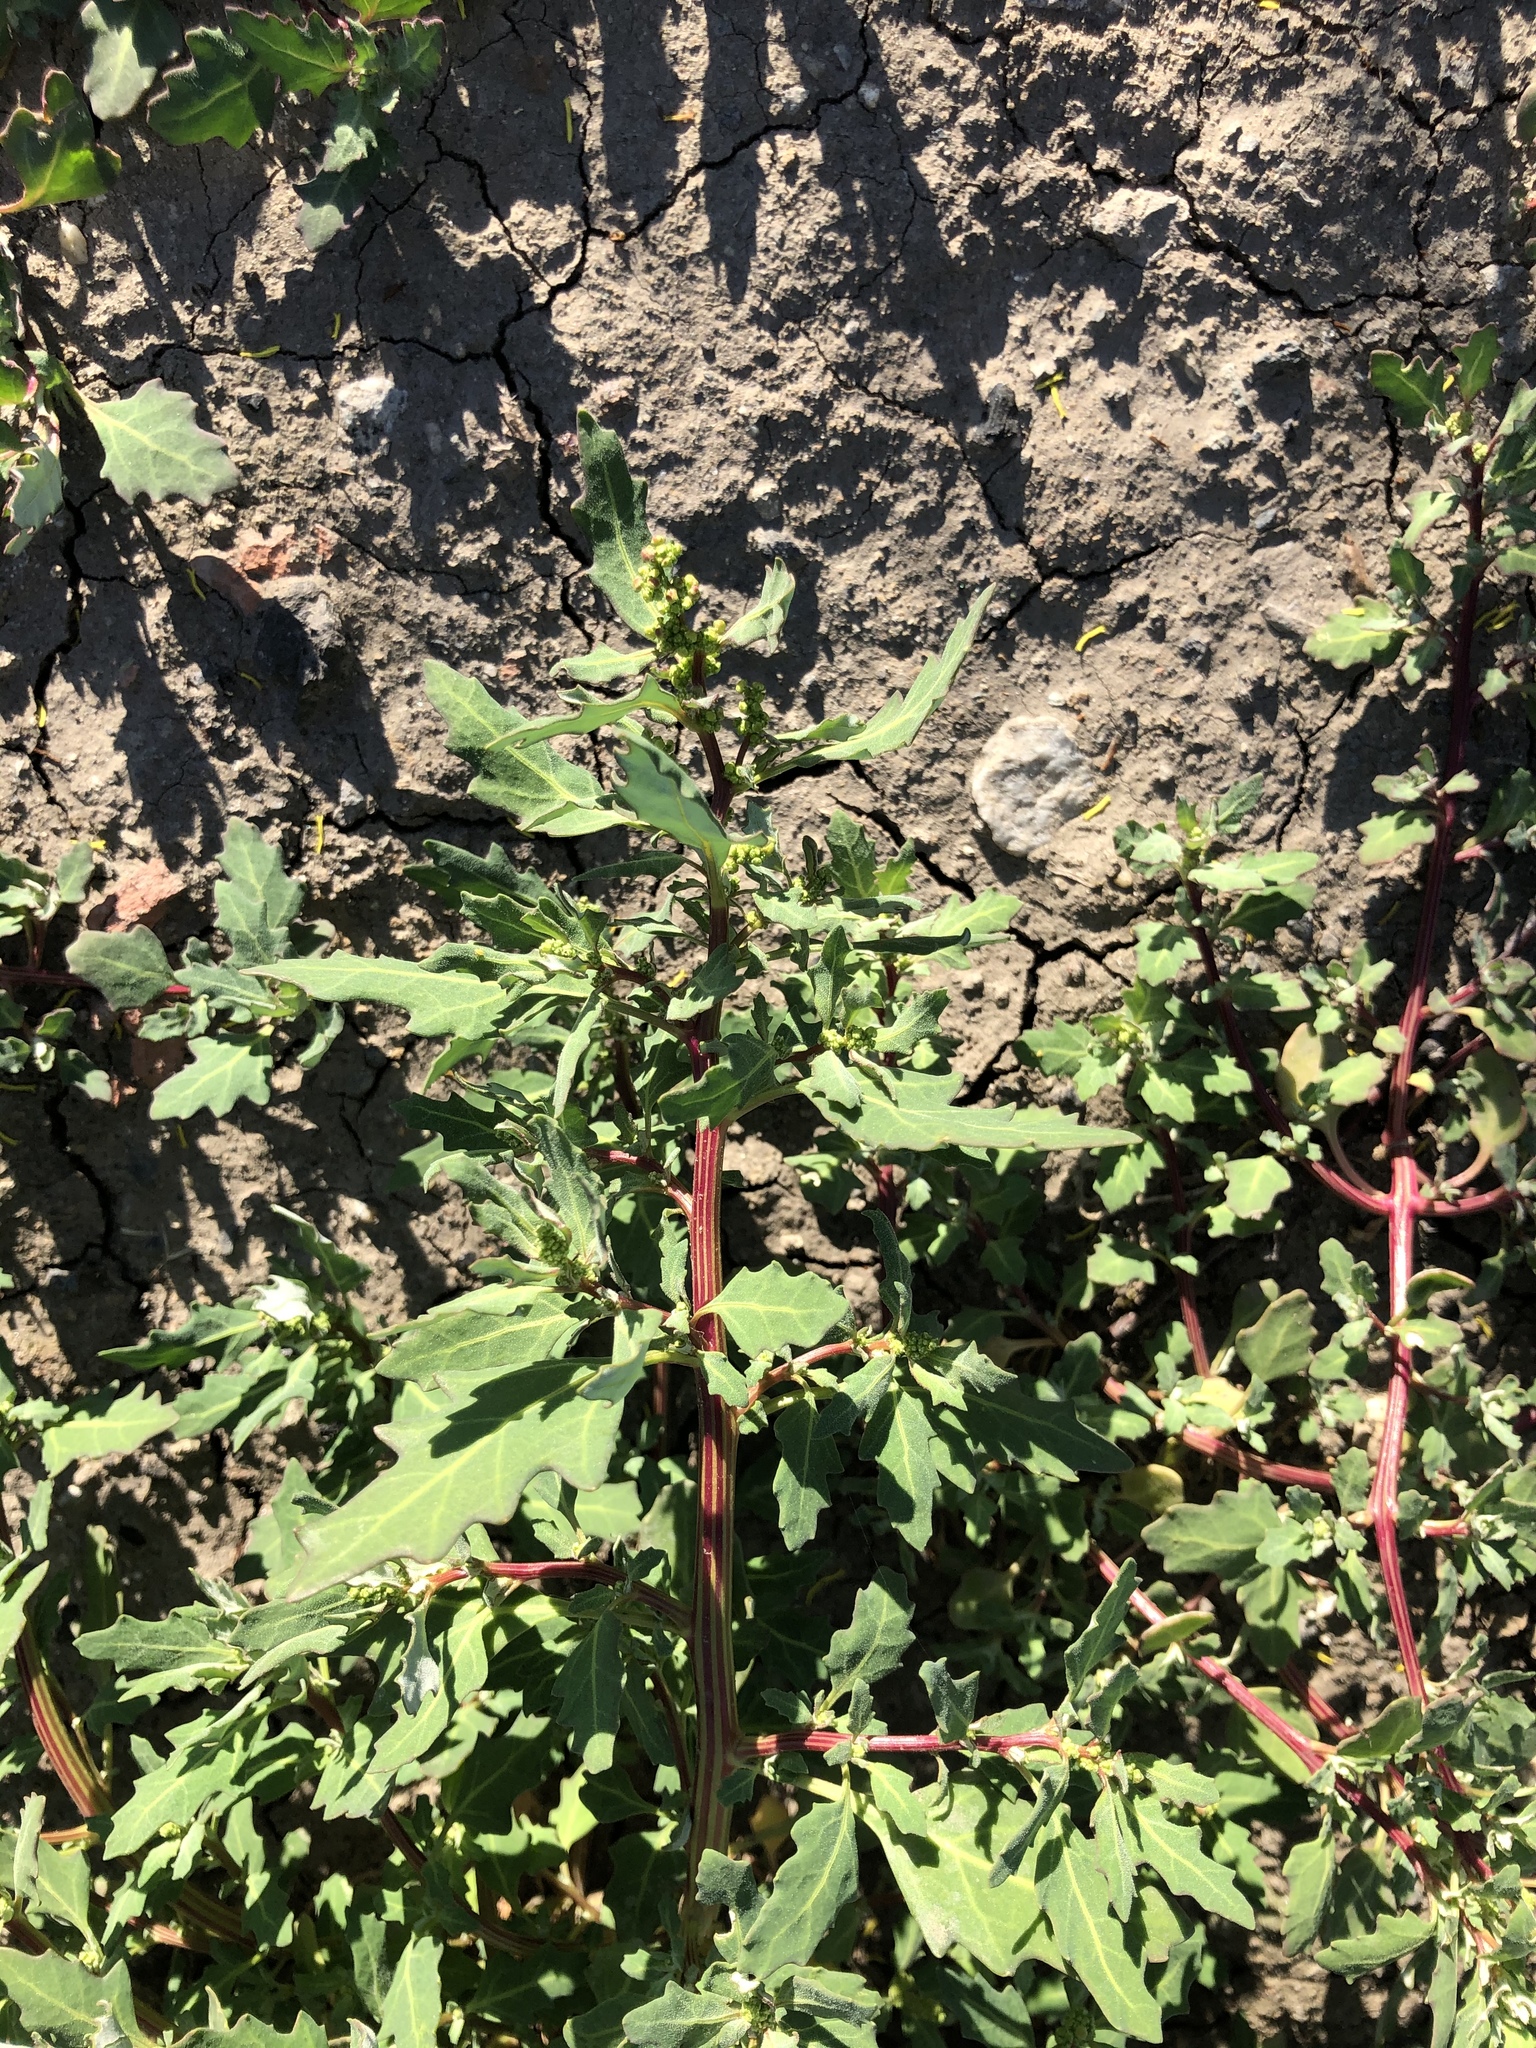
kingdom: Plantae
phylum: Tracheophyta
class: Magnoliopsida
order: Caryophyllales
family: Amaranthaceae
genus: Oxybasis
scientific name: Oxybasis glauca
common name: Glaucous goosefoot
